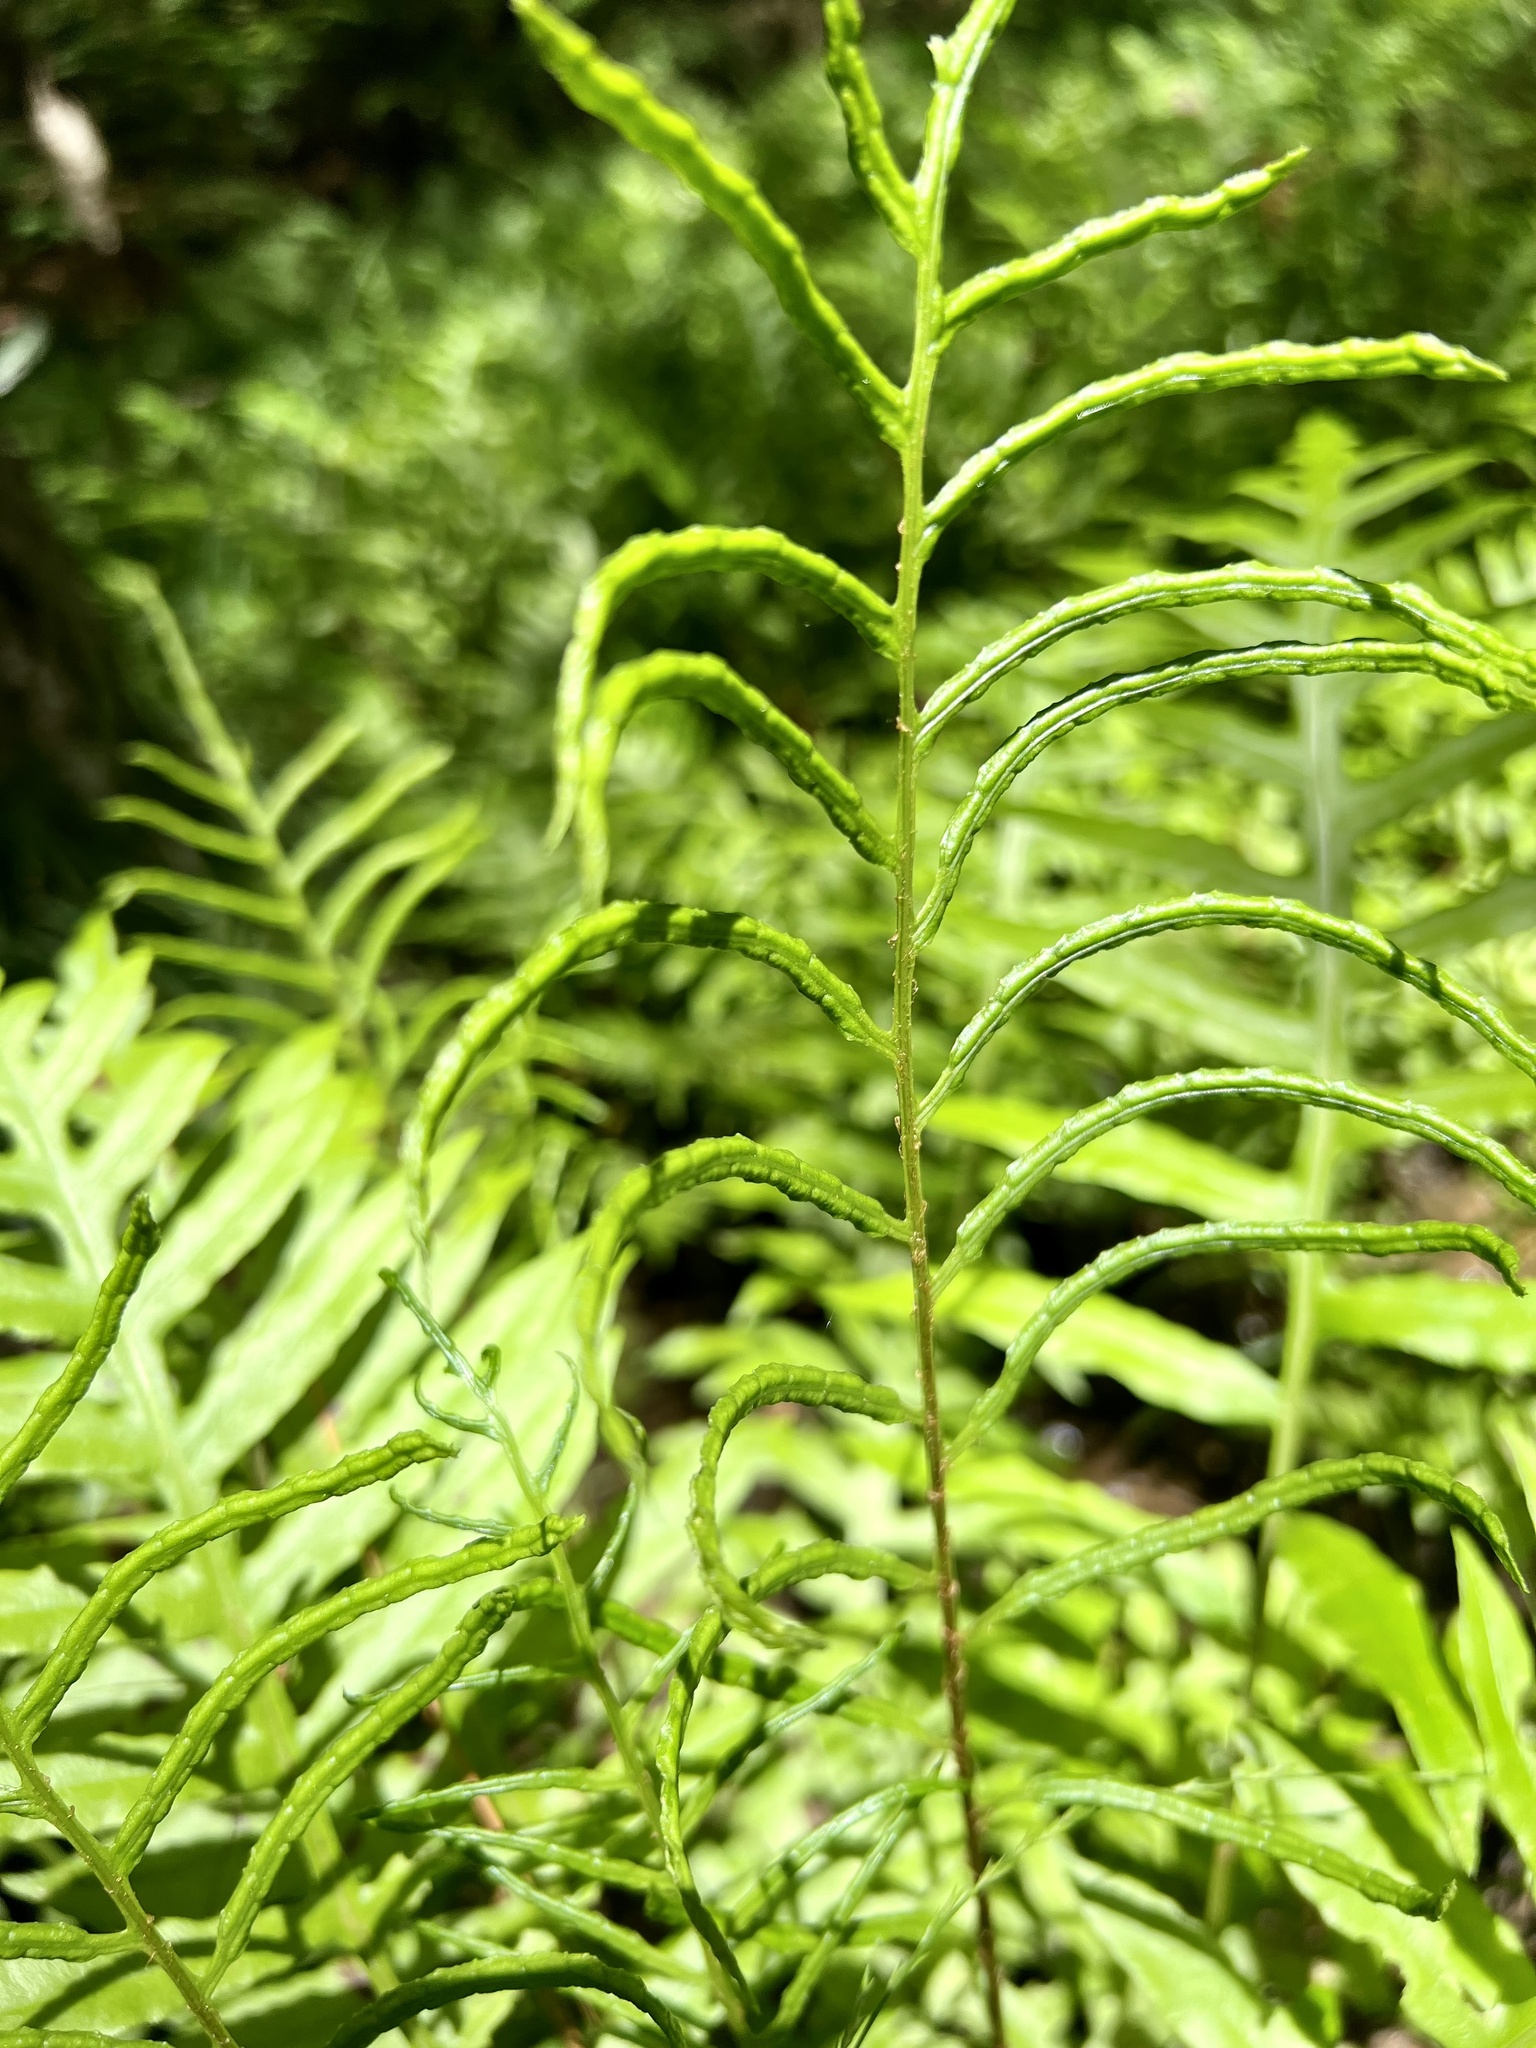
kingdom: Plantae
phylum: Tracheophyta
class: Polypodiopsida
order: Polypodiales
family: Blechnaceae
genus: Lorinseria
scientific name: Lorinseria areolata
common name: Dwarf chain fern
